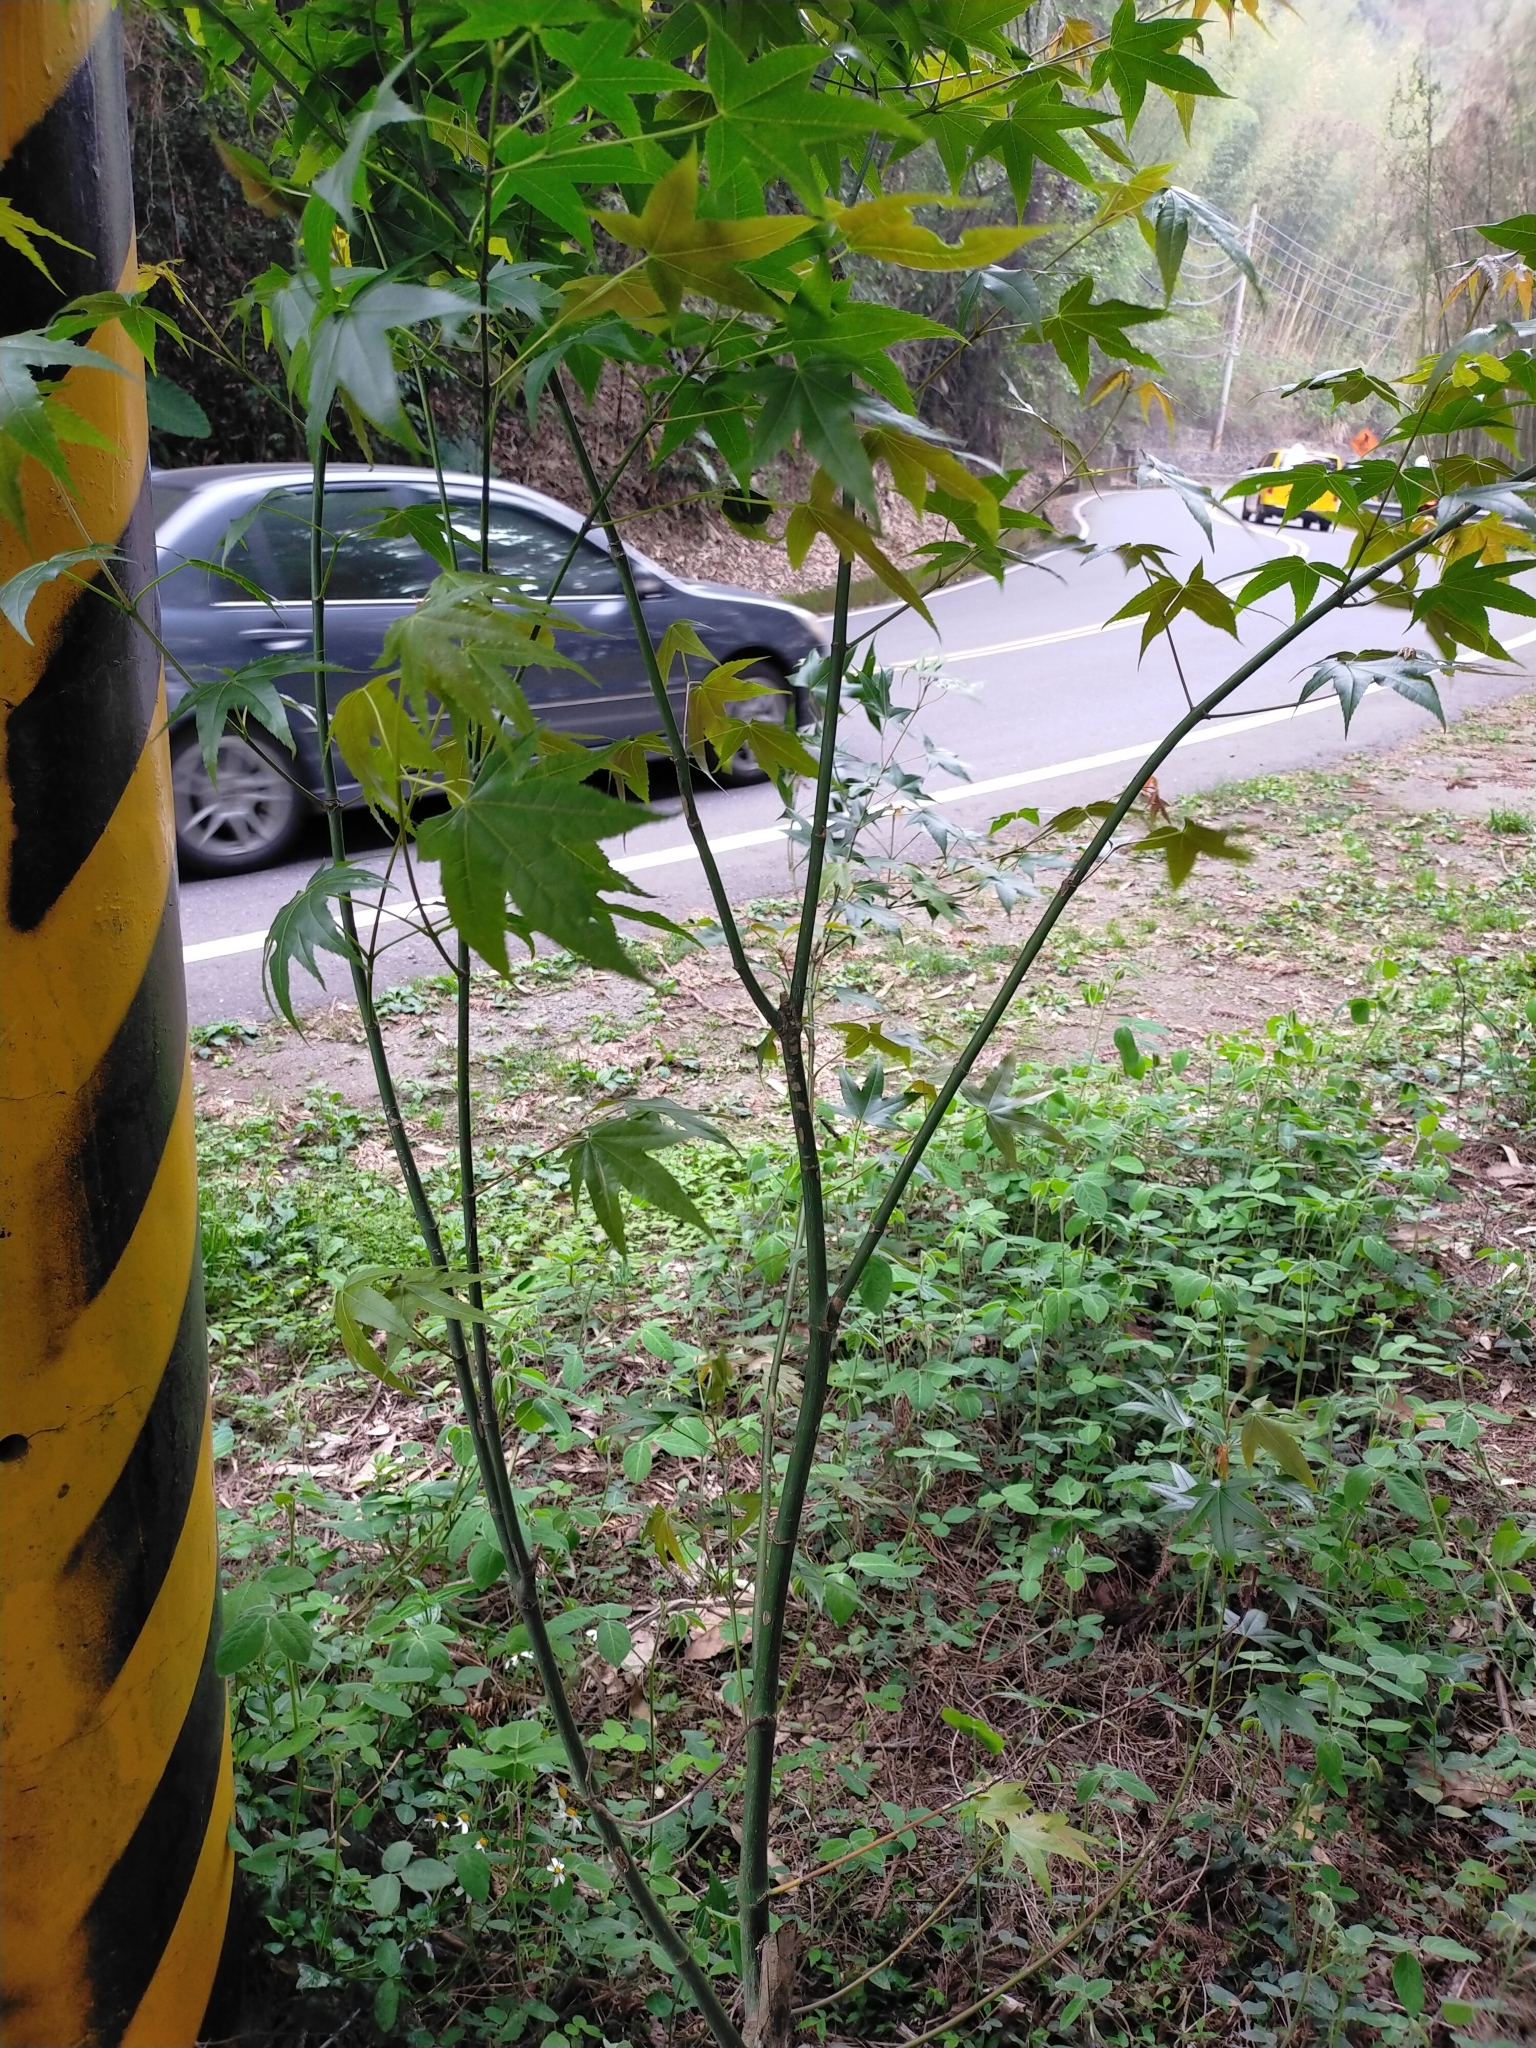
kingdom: Plantae
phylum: Tracheophyta
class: Magnoliopsida
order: Sapindales
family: Sapindaceae
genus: Acer
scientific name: Acer serrulatum
